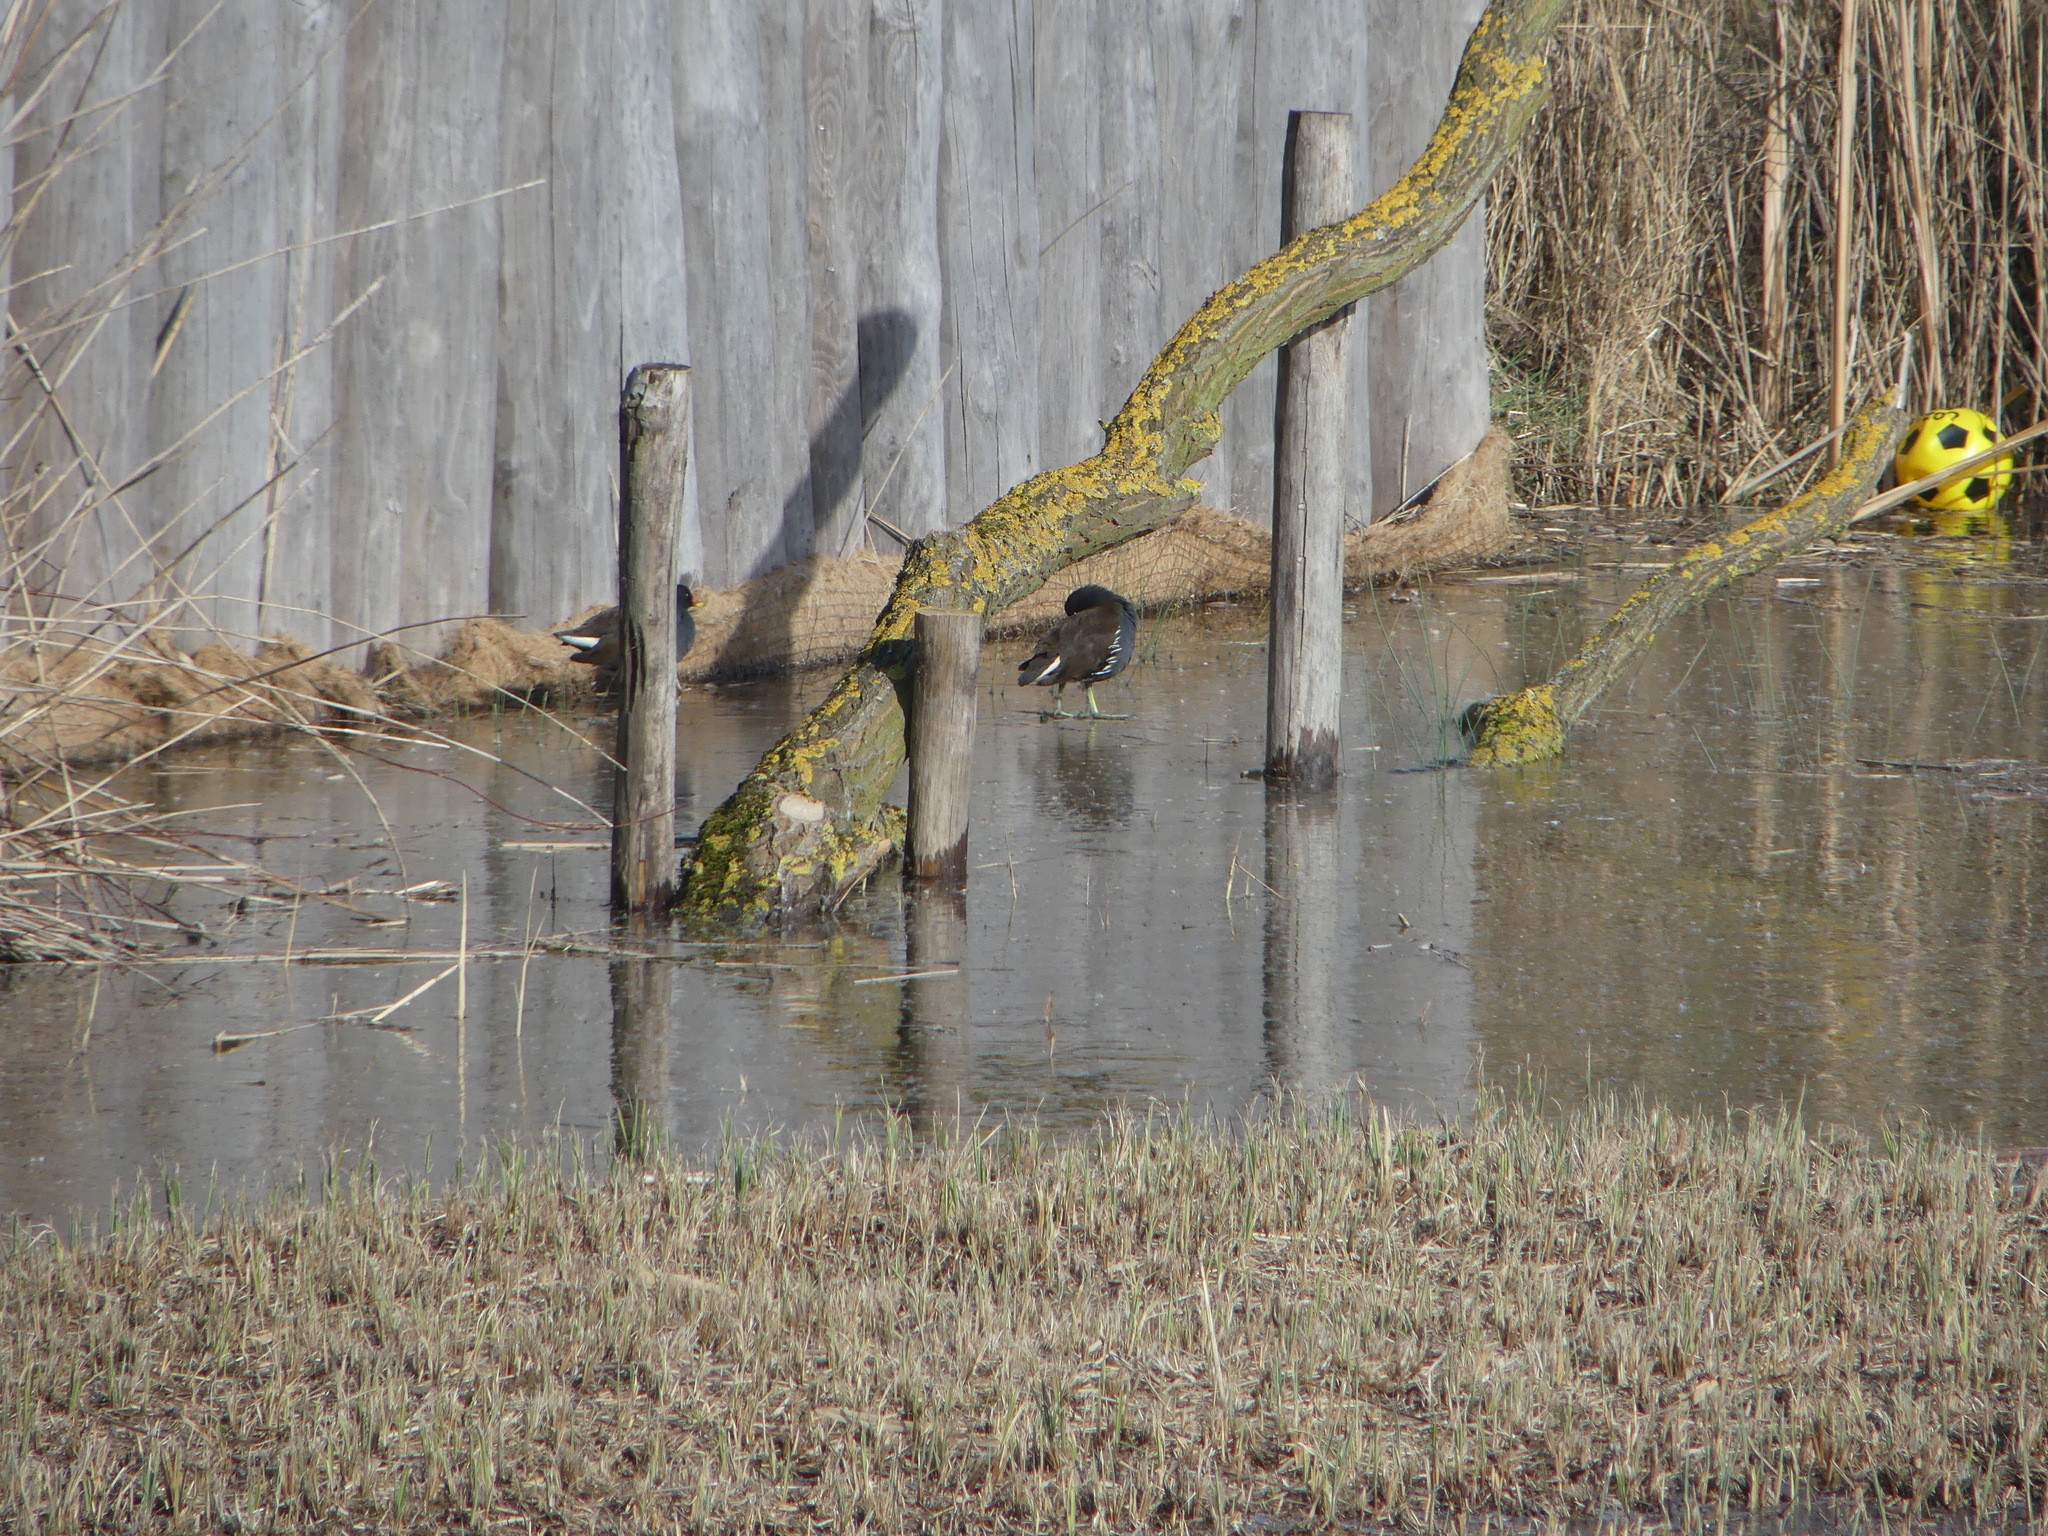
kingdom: Animalia
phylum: Chordata
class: Aves
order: Gruiformes
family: Rallidae
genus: Gallinula
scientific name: Gallinula chloropus
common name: Common moorhen
